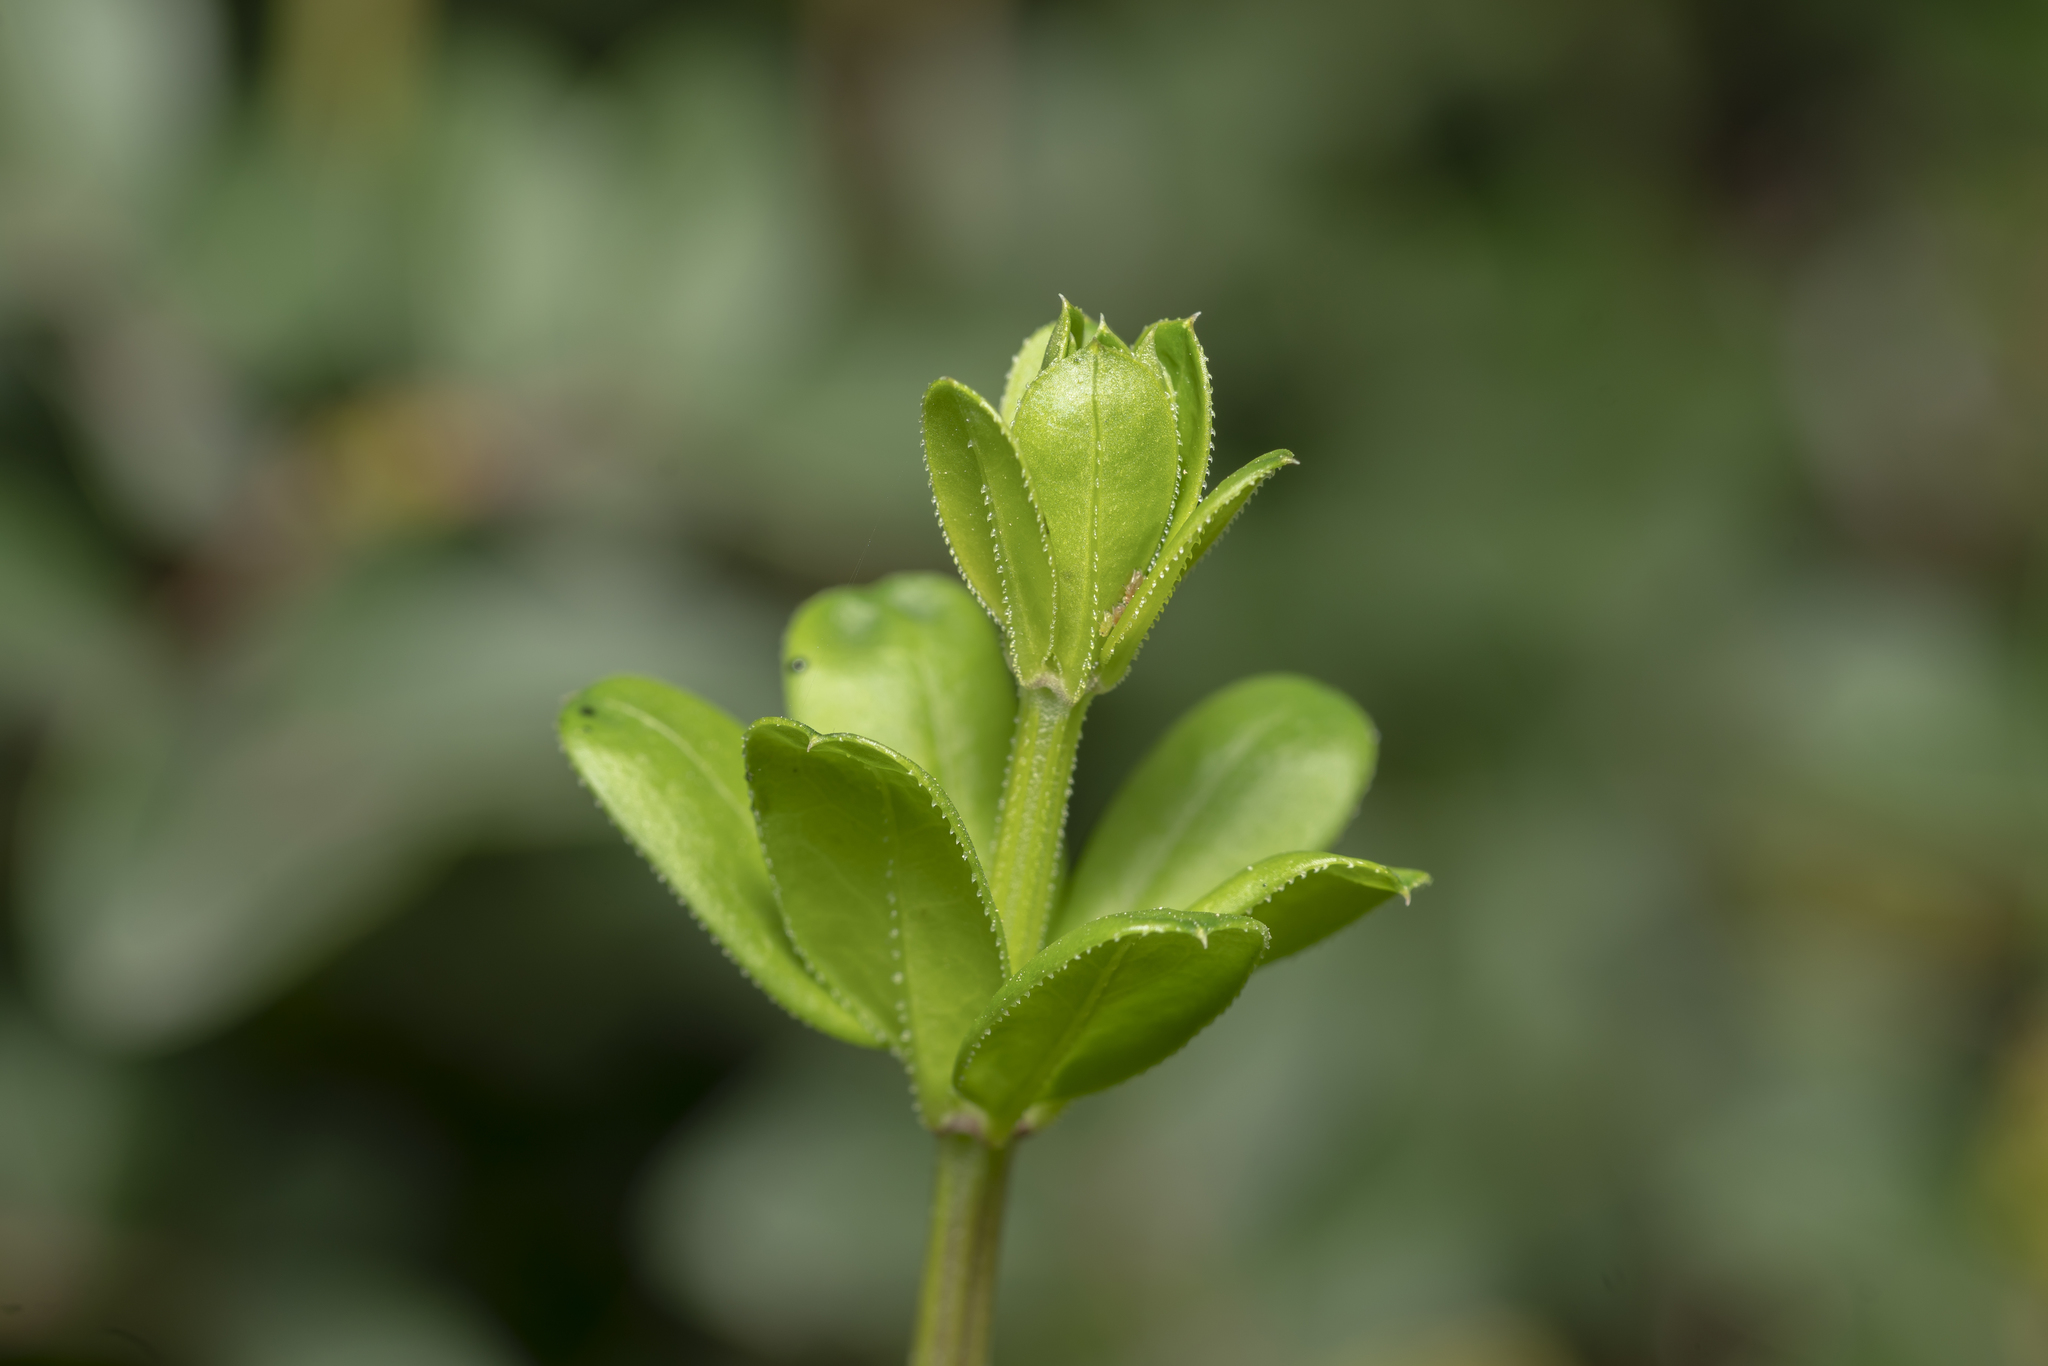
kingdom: Plantae
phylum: Tracheophyta
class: Magnoliopsida
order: Gentianales
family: Rubiaceae
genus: Rubia
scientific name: Rubia tenuifolia
